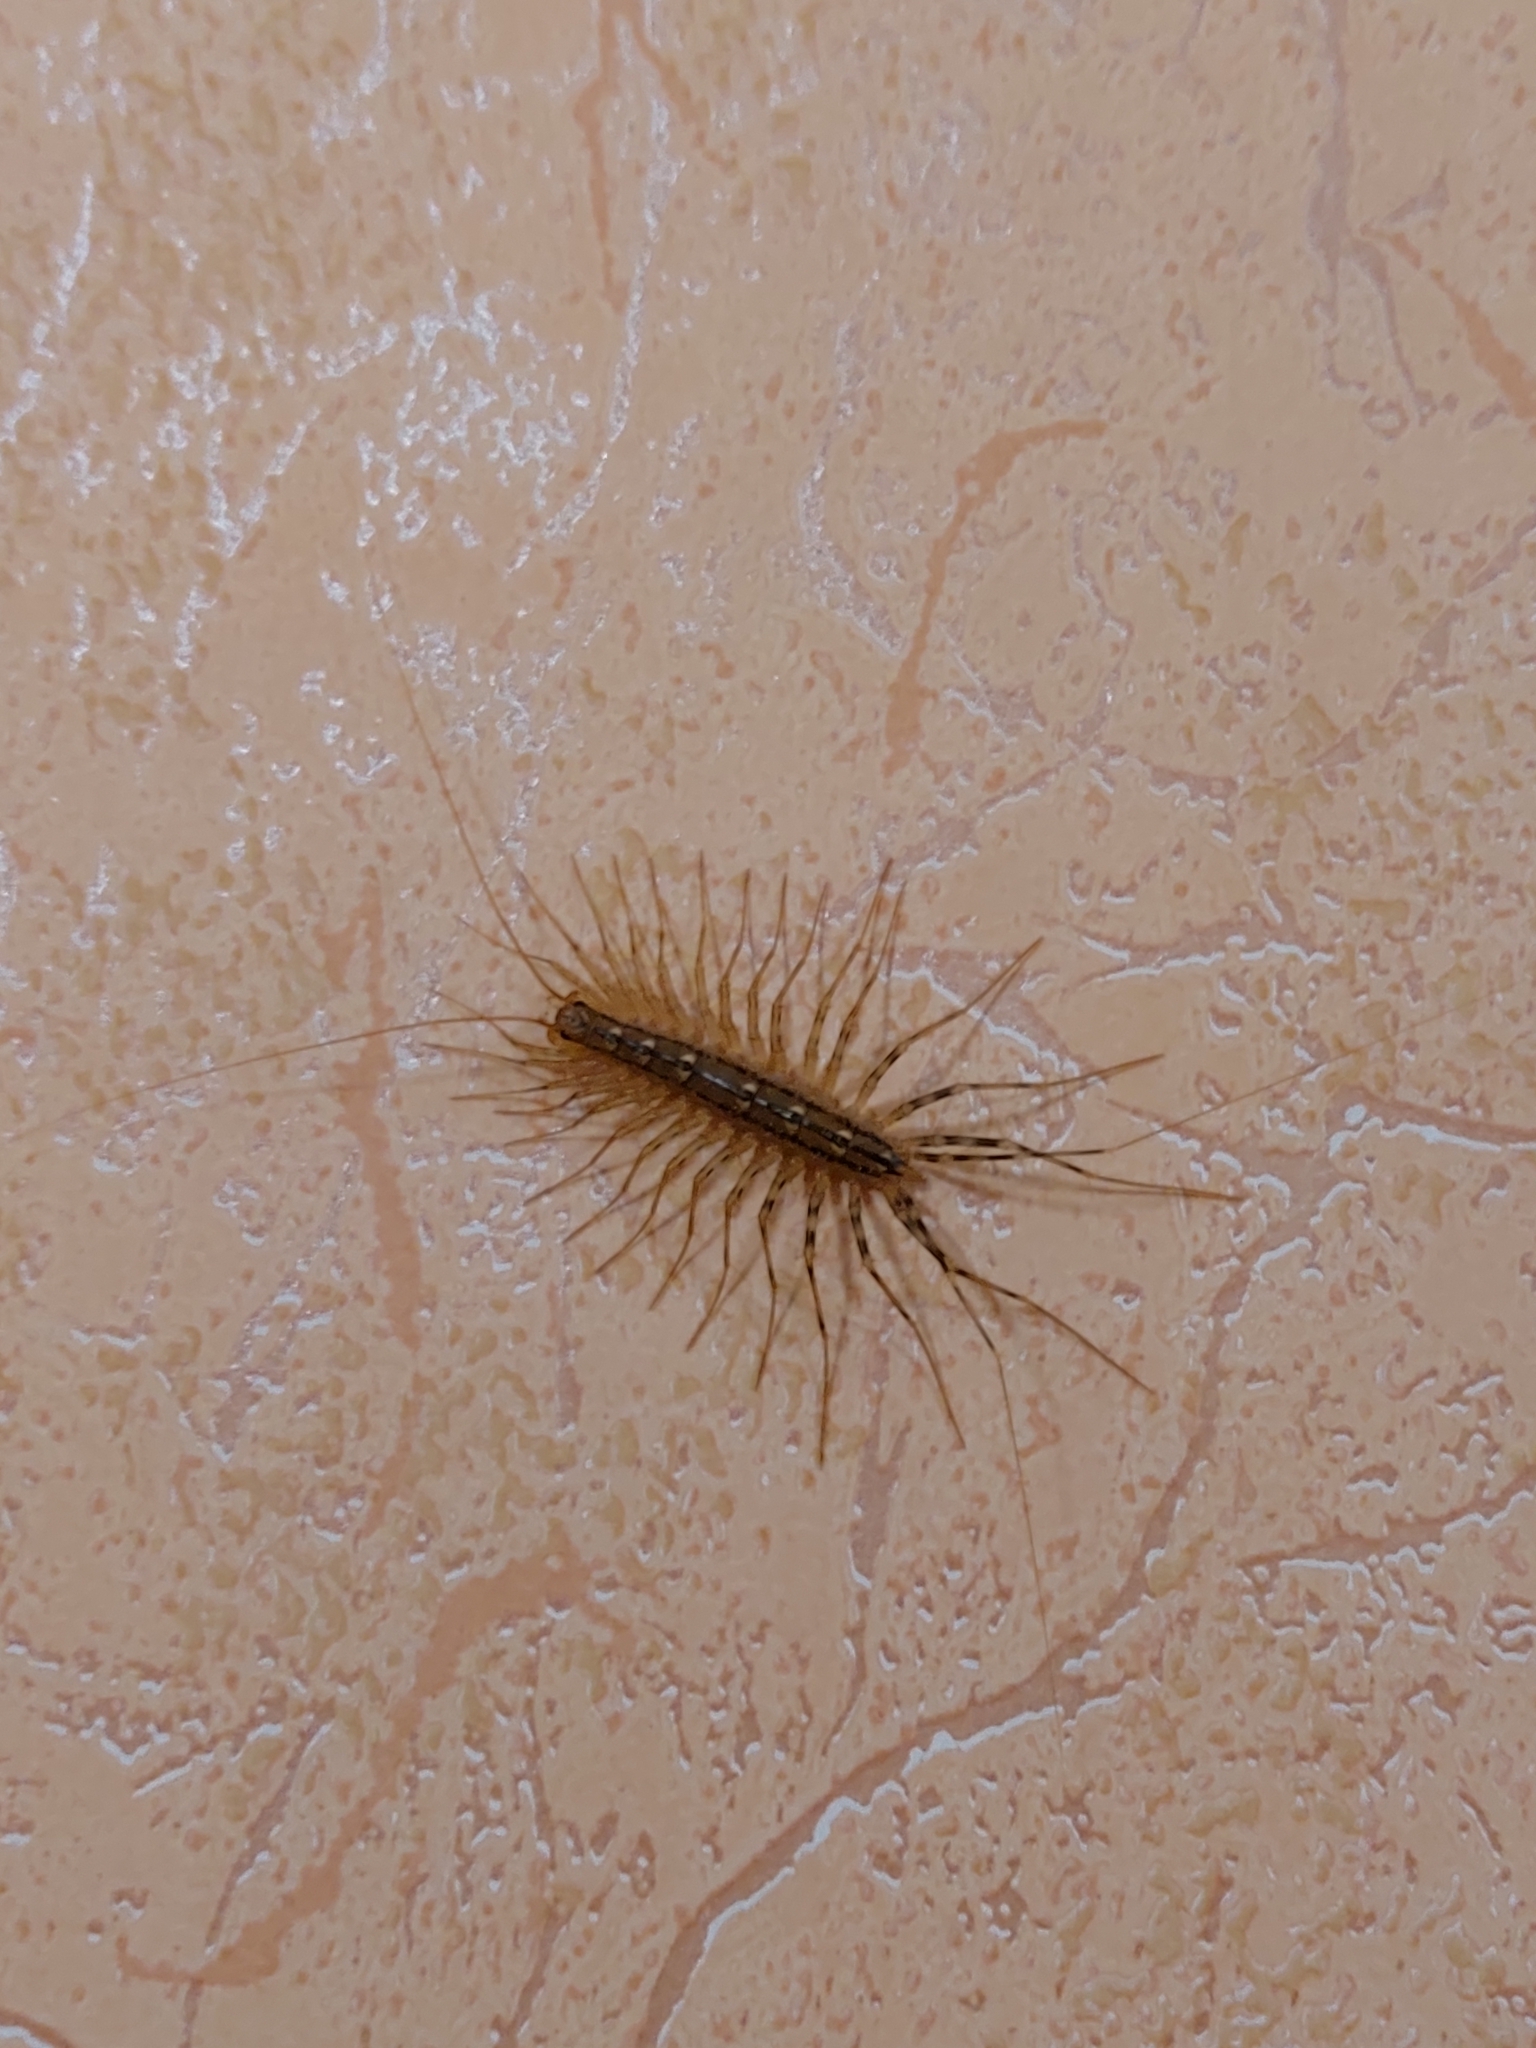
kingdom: Animalia
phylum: Arthropoda
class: Chilopoda
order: Scutigeromorpha
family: Scutigeridae
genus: Scutigera
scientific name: Scutigera coleoptrata
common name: House centipede
